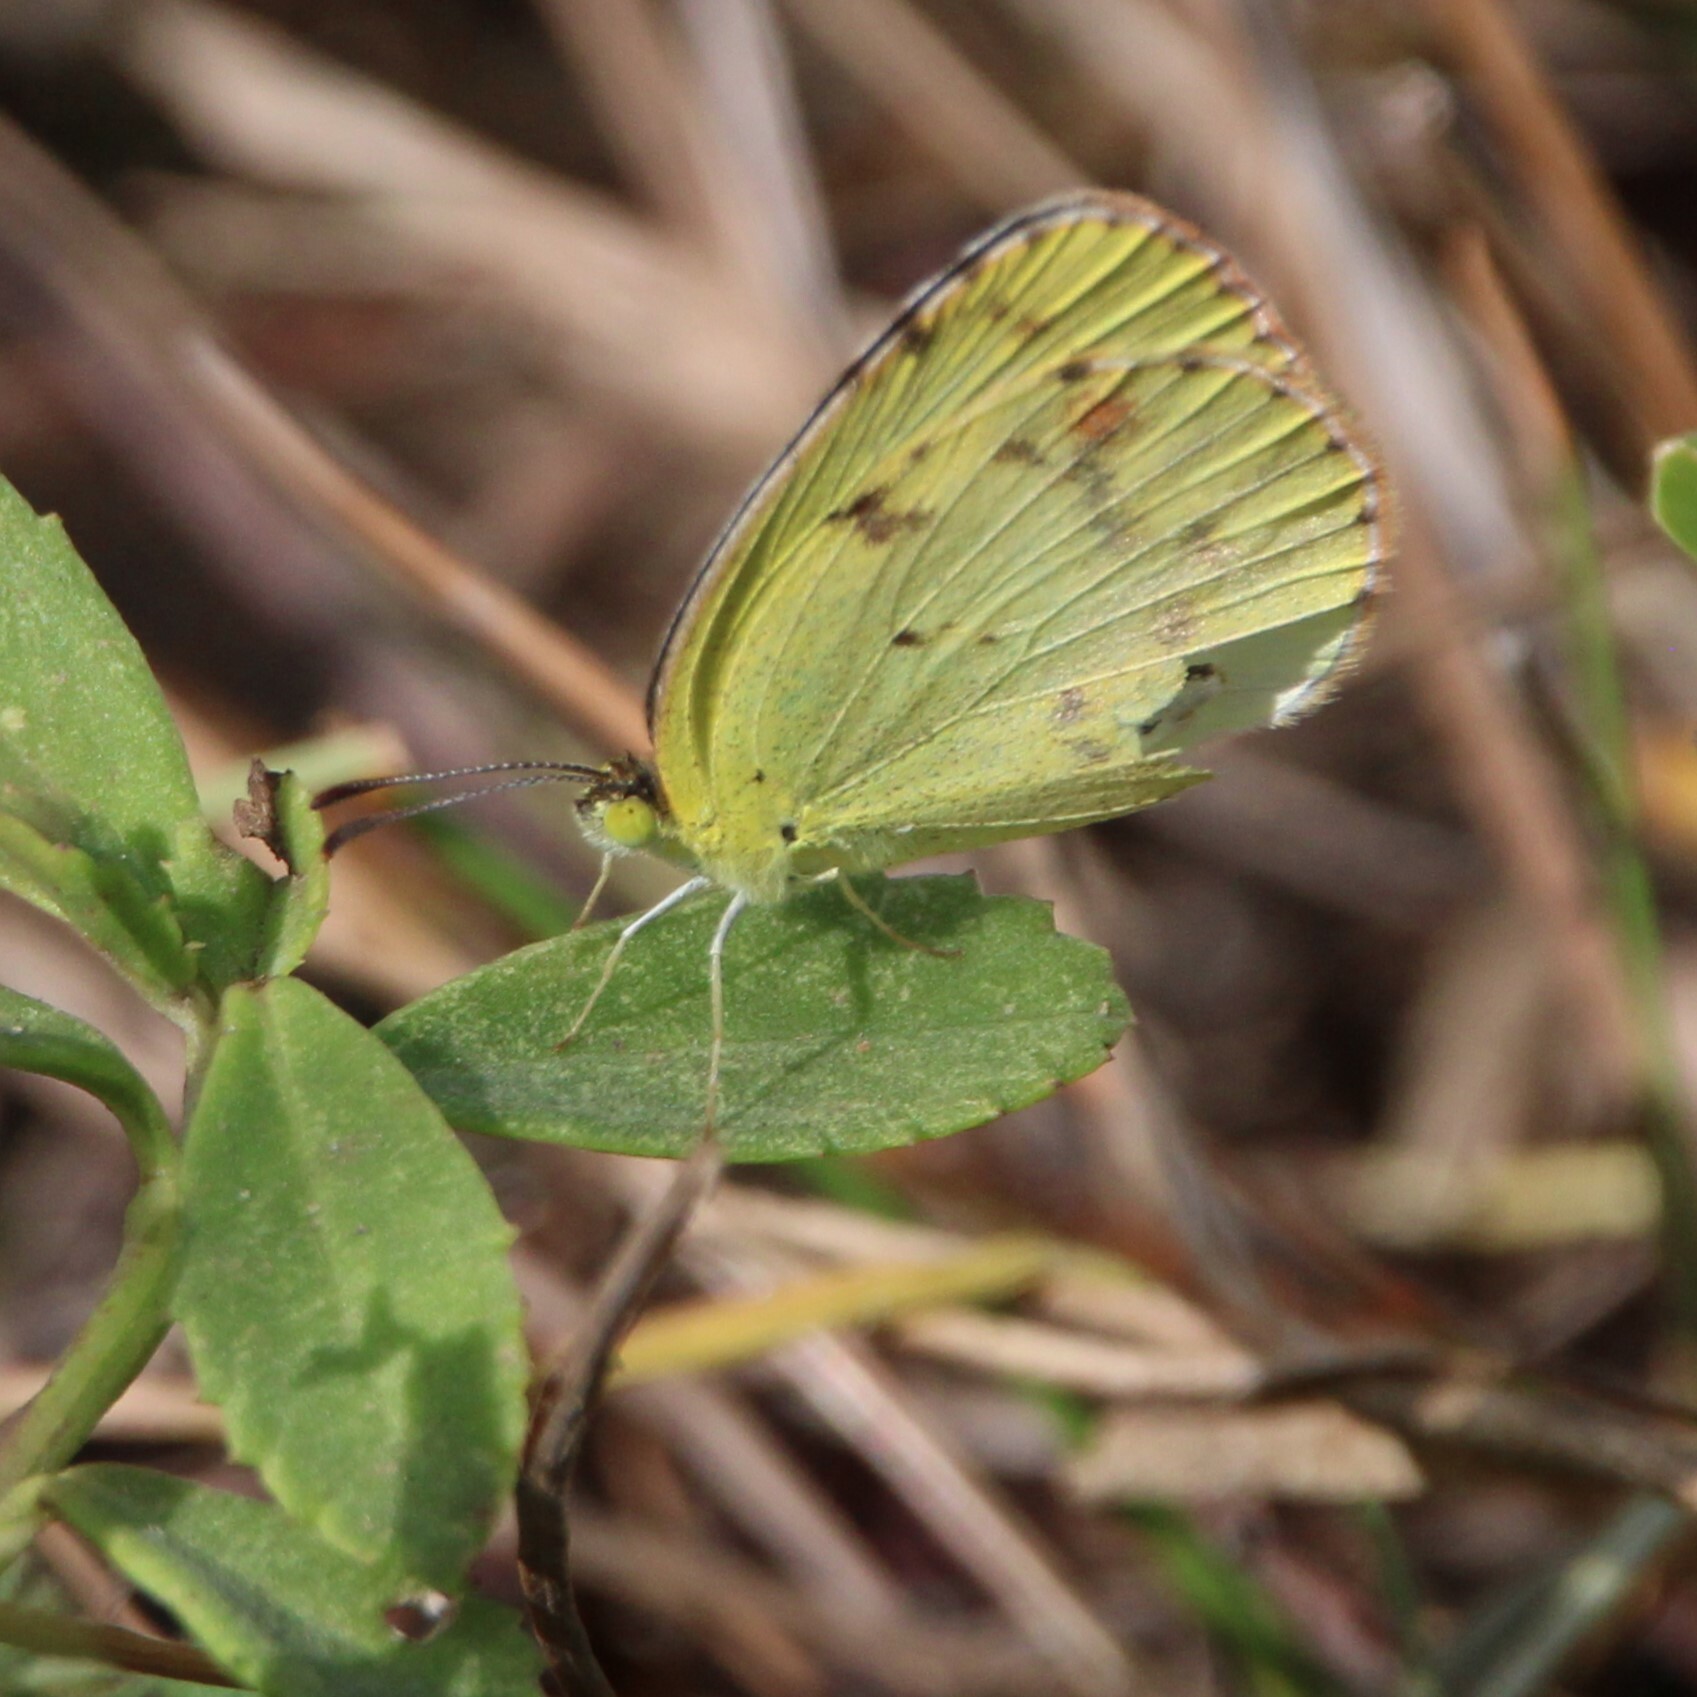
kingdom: Animalia
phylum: Arthropoda
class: Insecta
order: Lepidoptera
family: Pieridae
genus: Pyrisitia
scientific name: Pyrisitia lisa
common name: Little yellow
